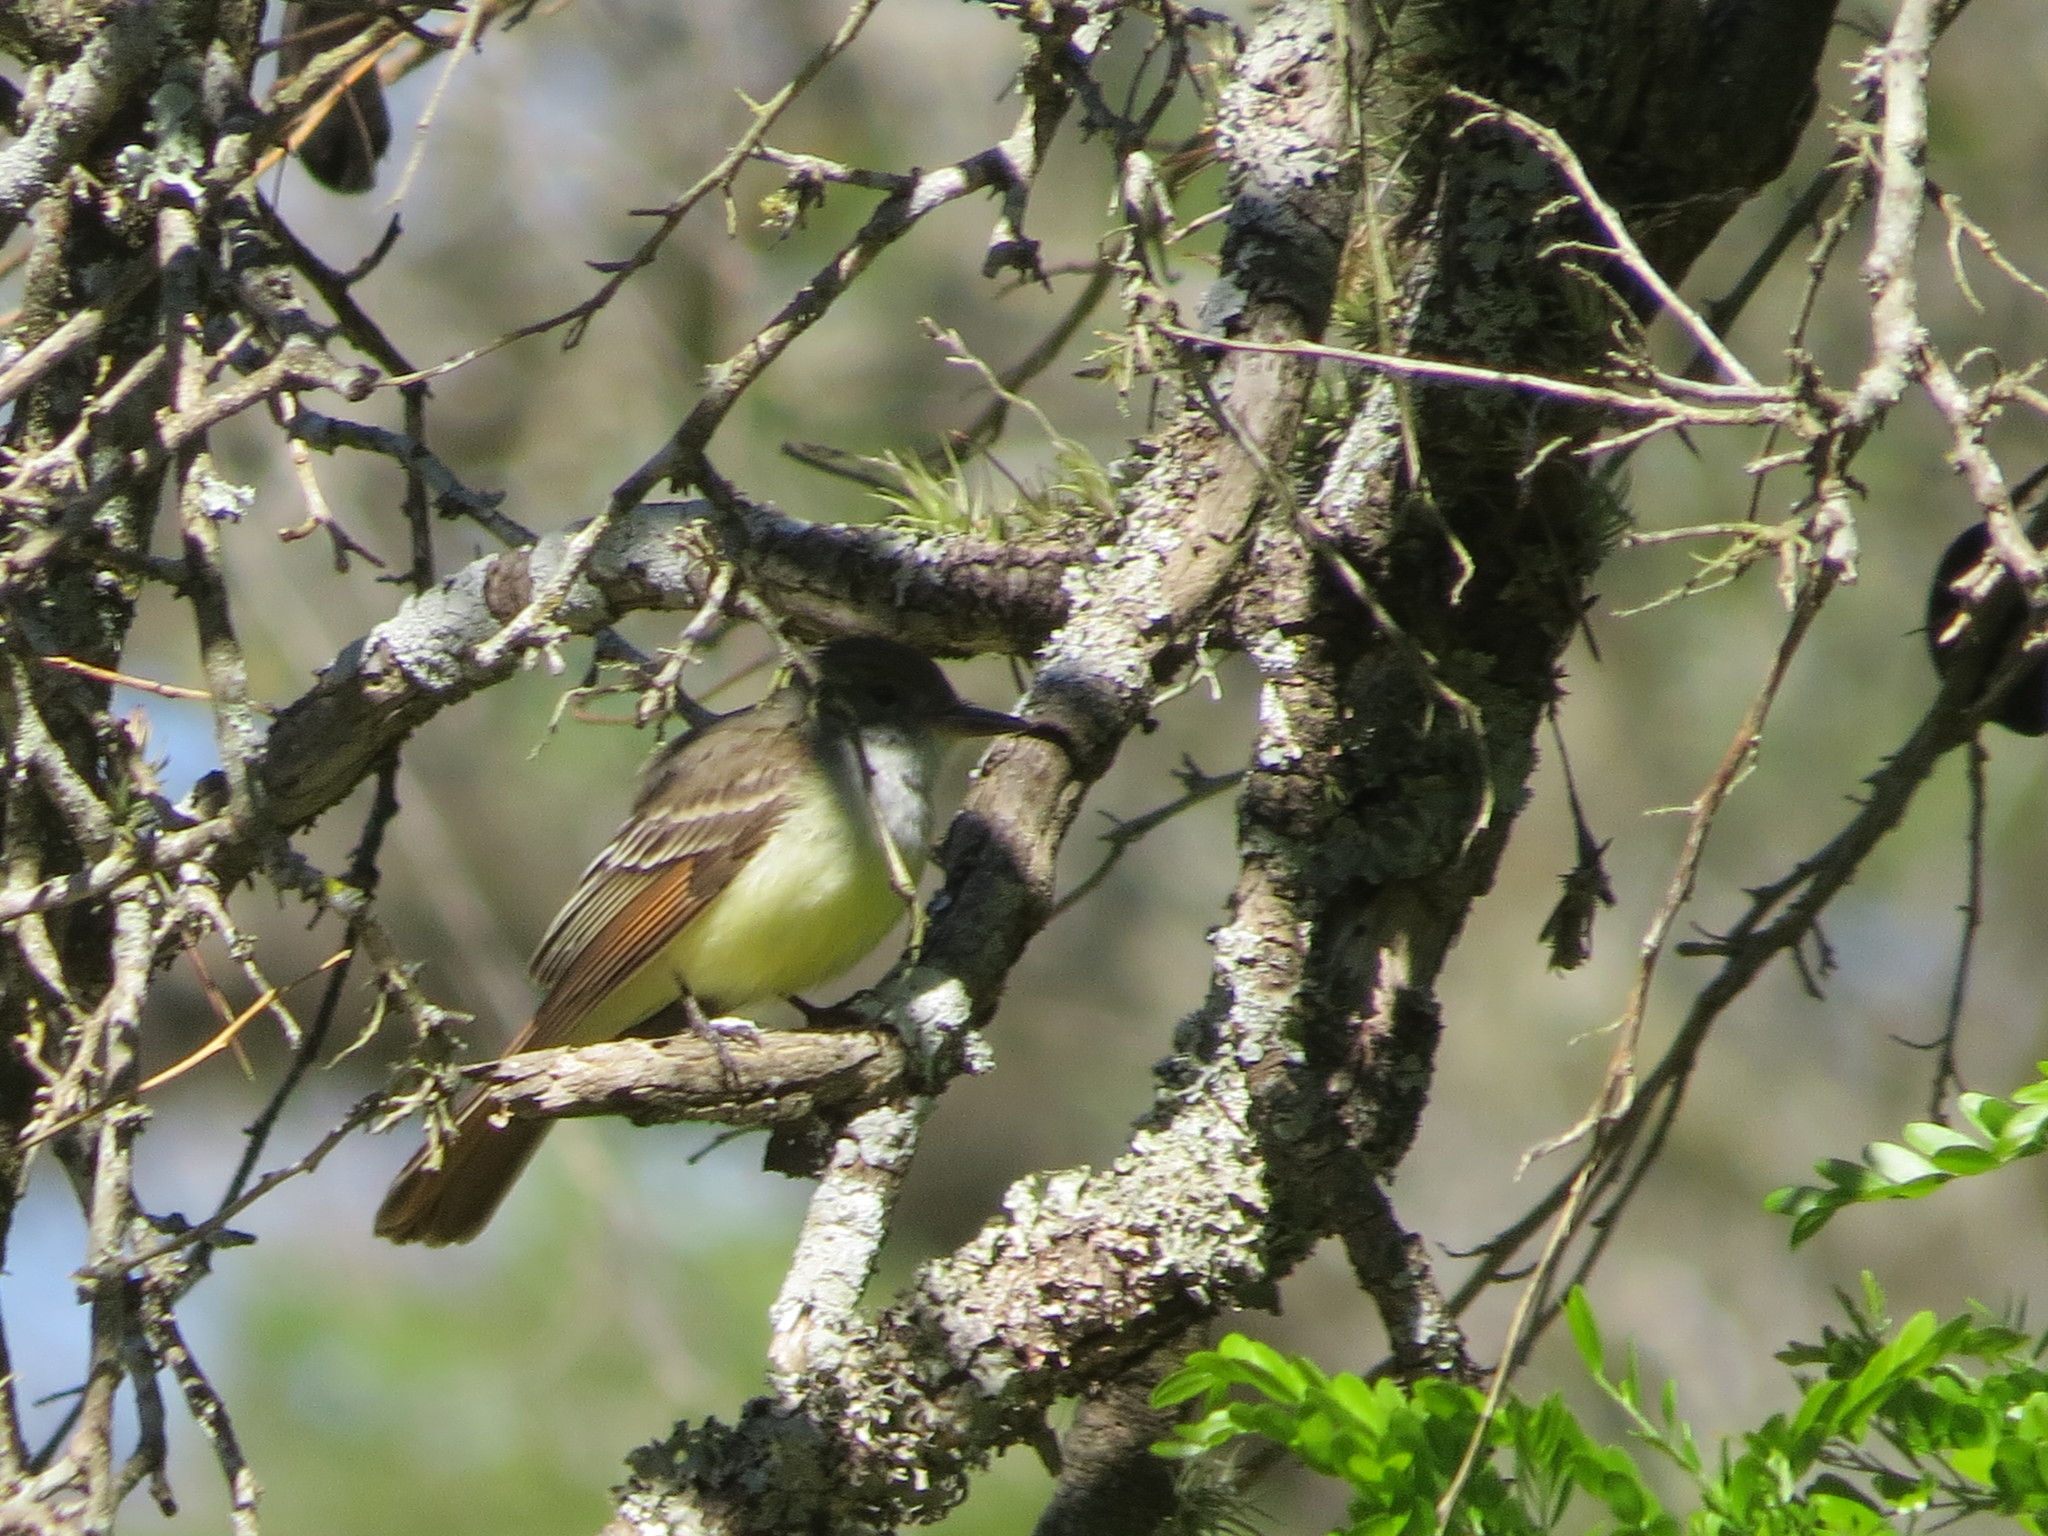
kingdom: Animalia
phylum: Chordata
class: Aves
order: Passeriformes
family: Tyrannidae
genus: Myiarchus
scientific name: Myiarchus tyrannulus
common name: Brown-crested flycatcher
